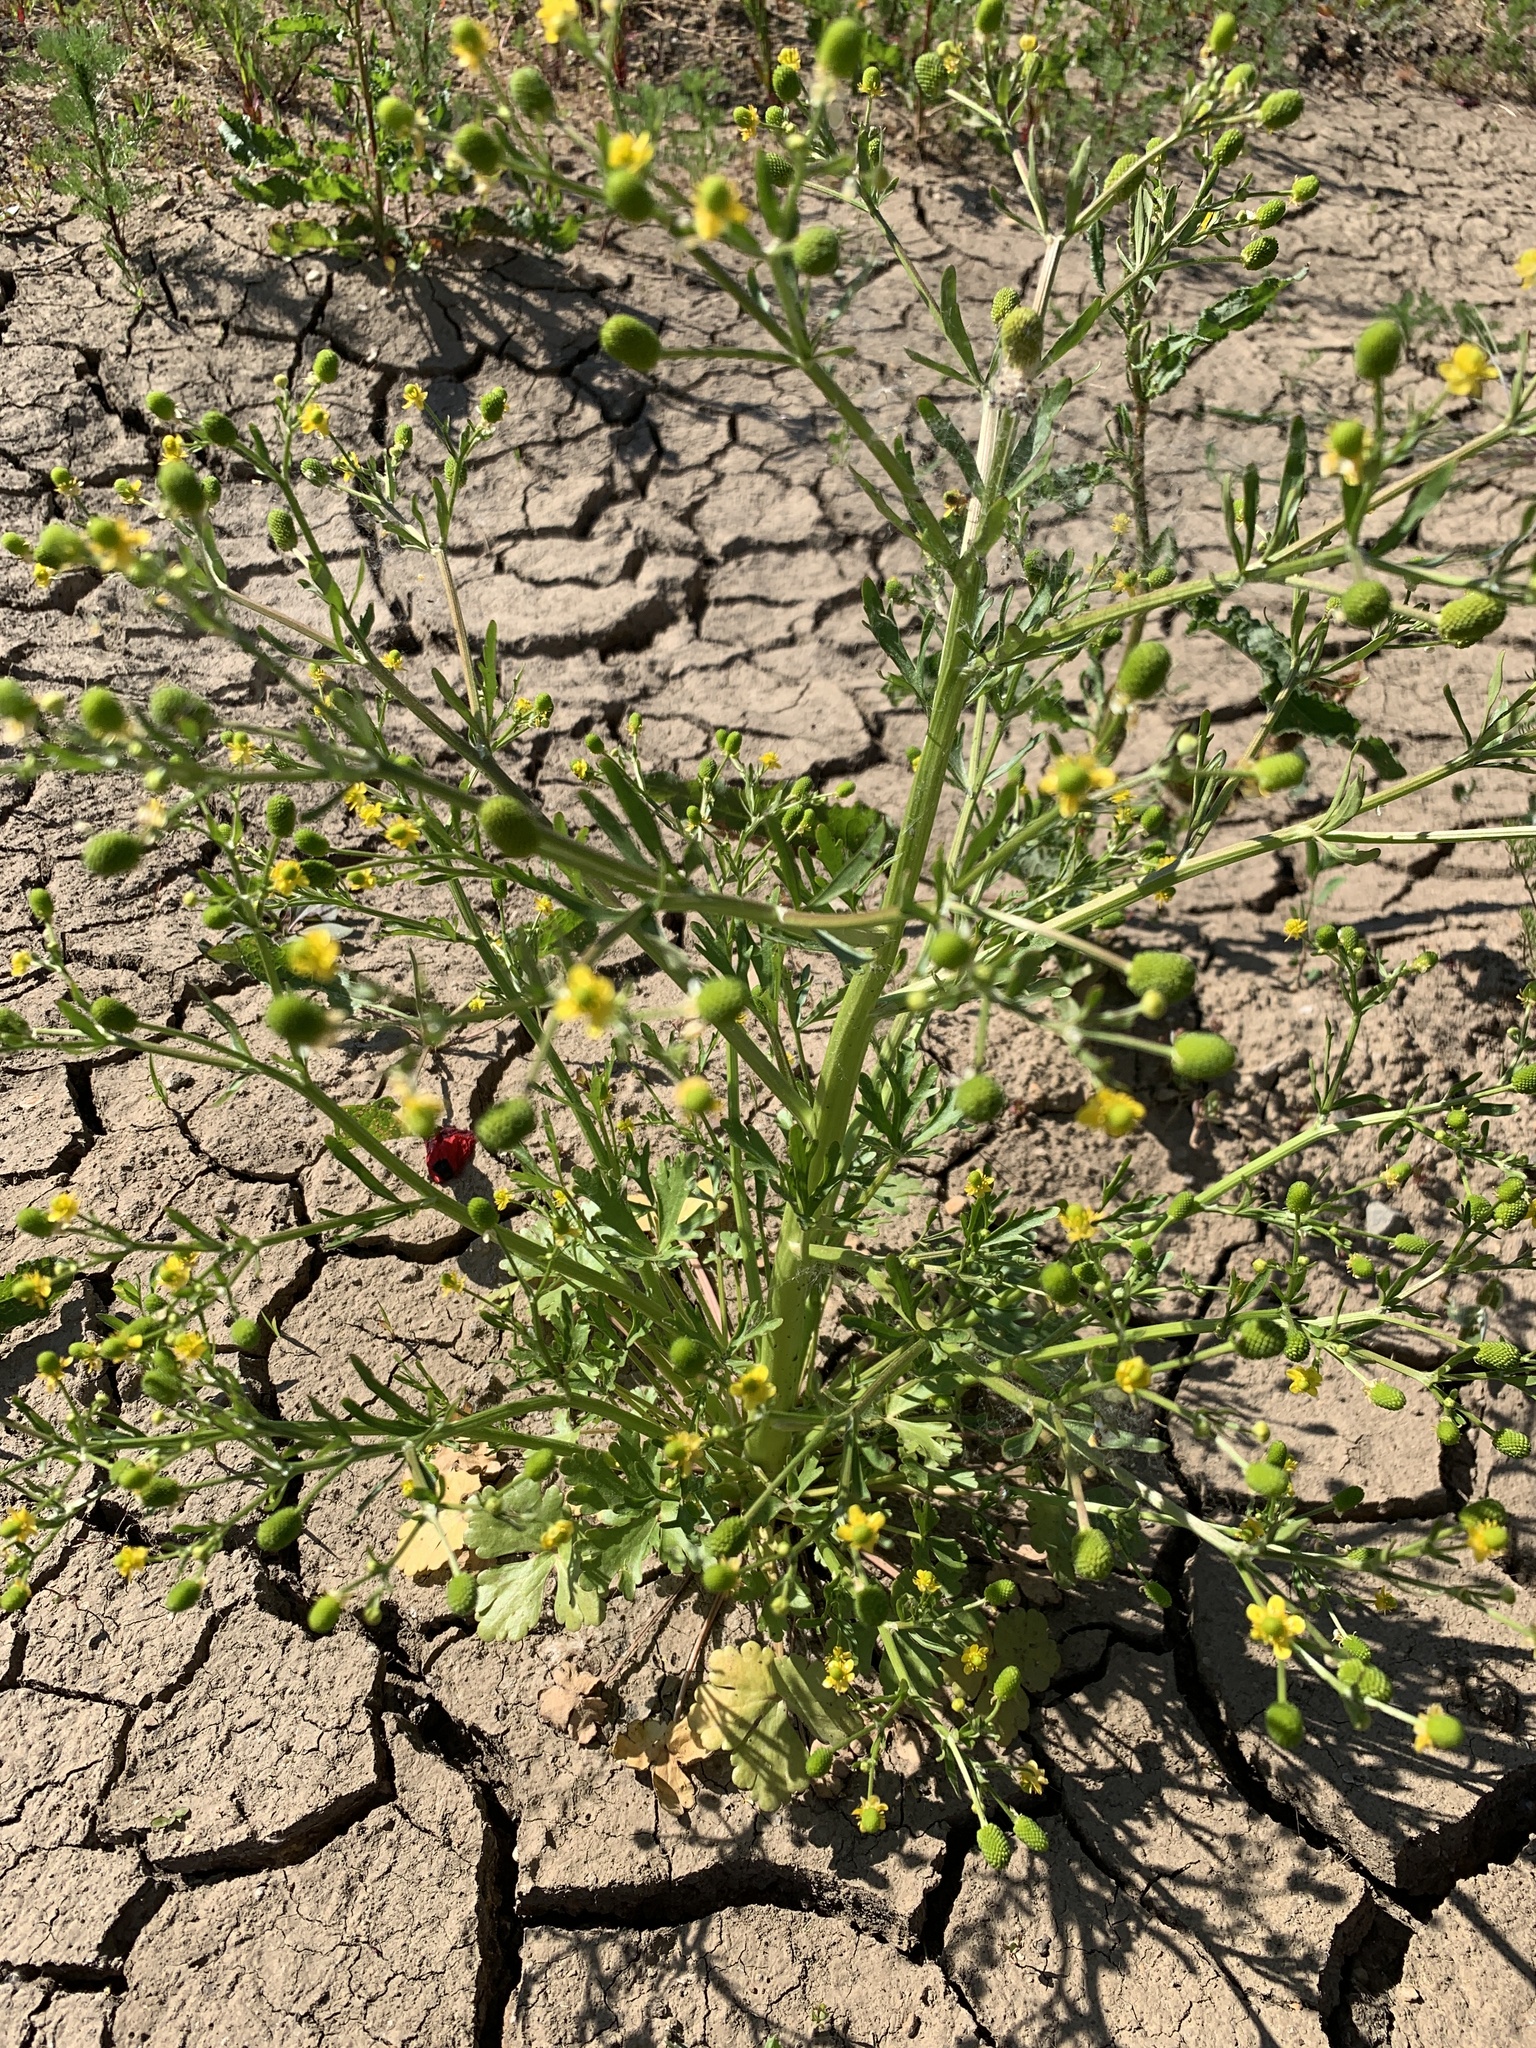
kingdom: Plantae
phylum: Tracheophyta
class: Magnoliopsida
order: Ranunculales
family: Ranunculaceae
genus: Ranunculus
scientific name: Ranunculus sceleratus
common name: Celery-leaved buttercup
